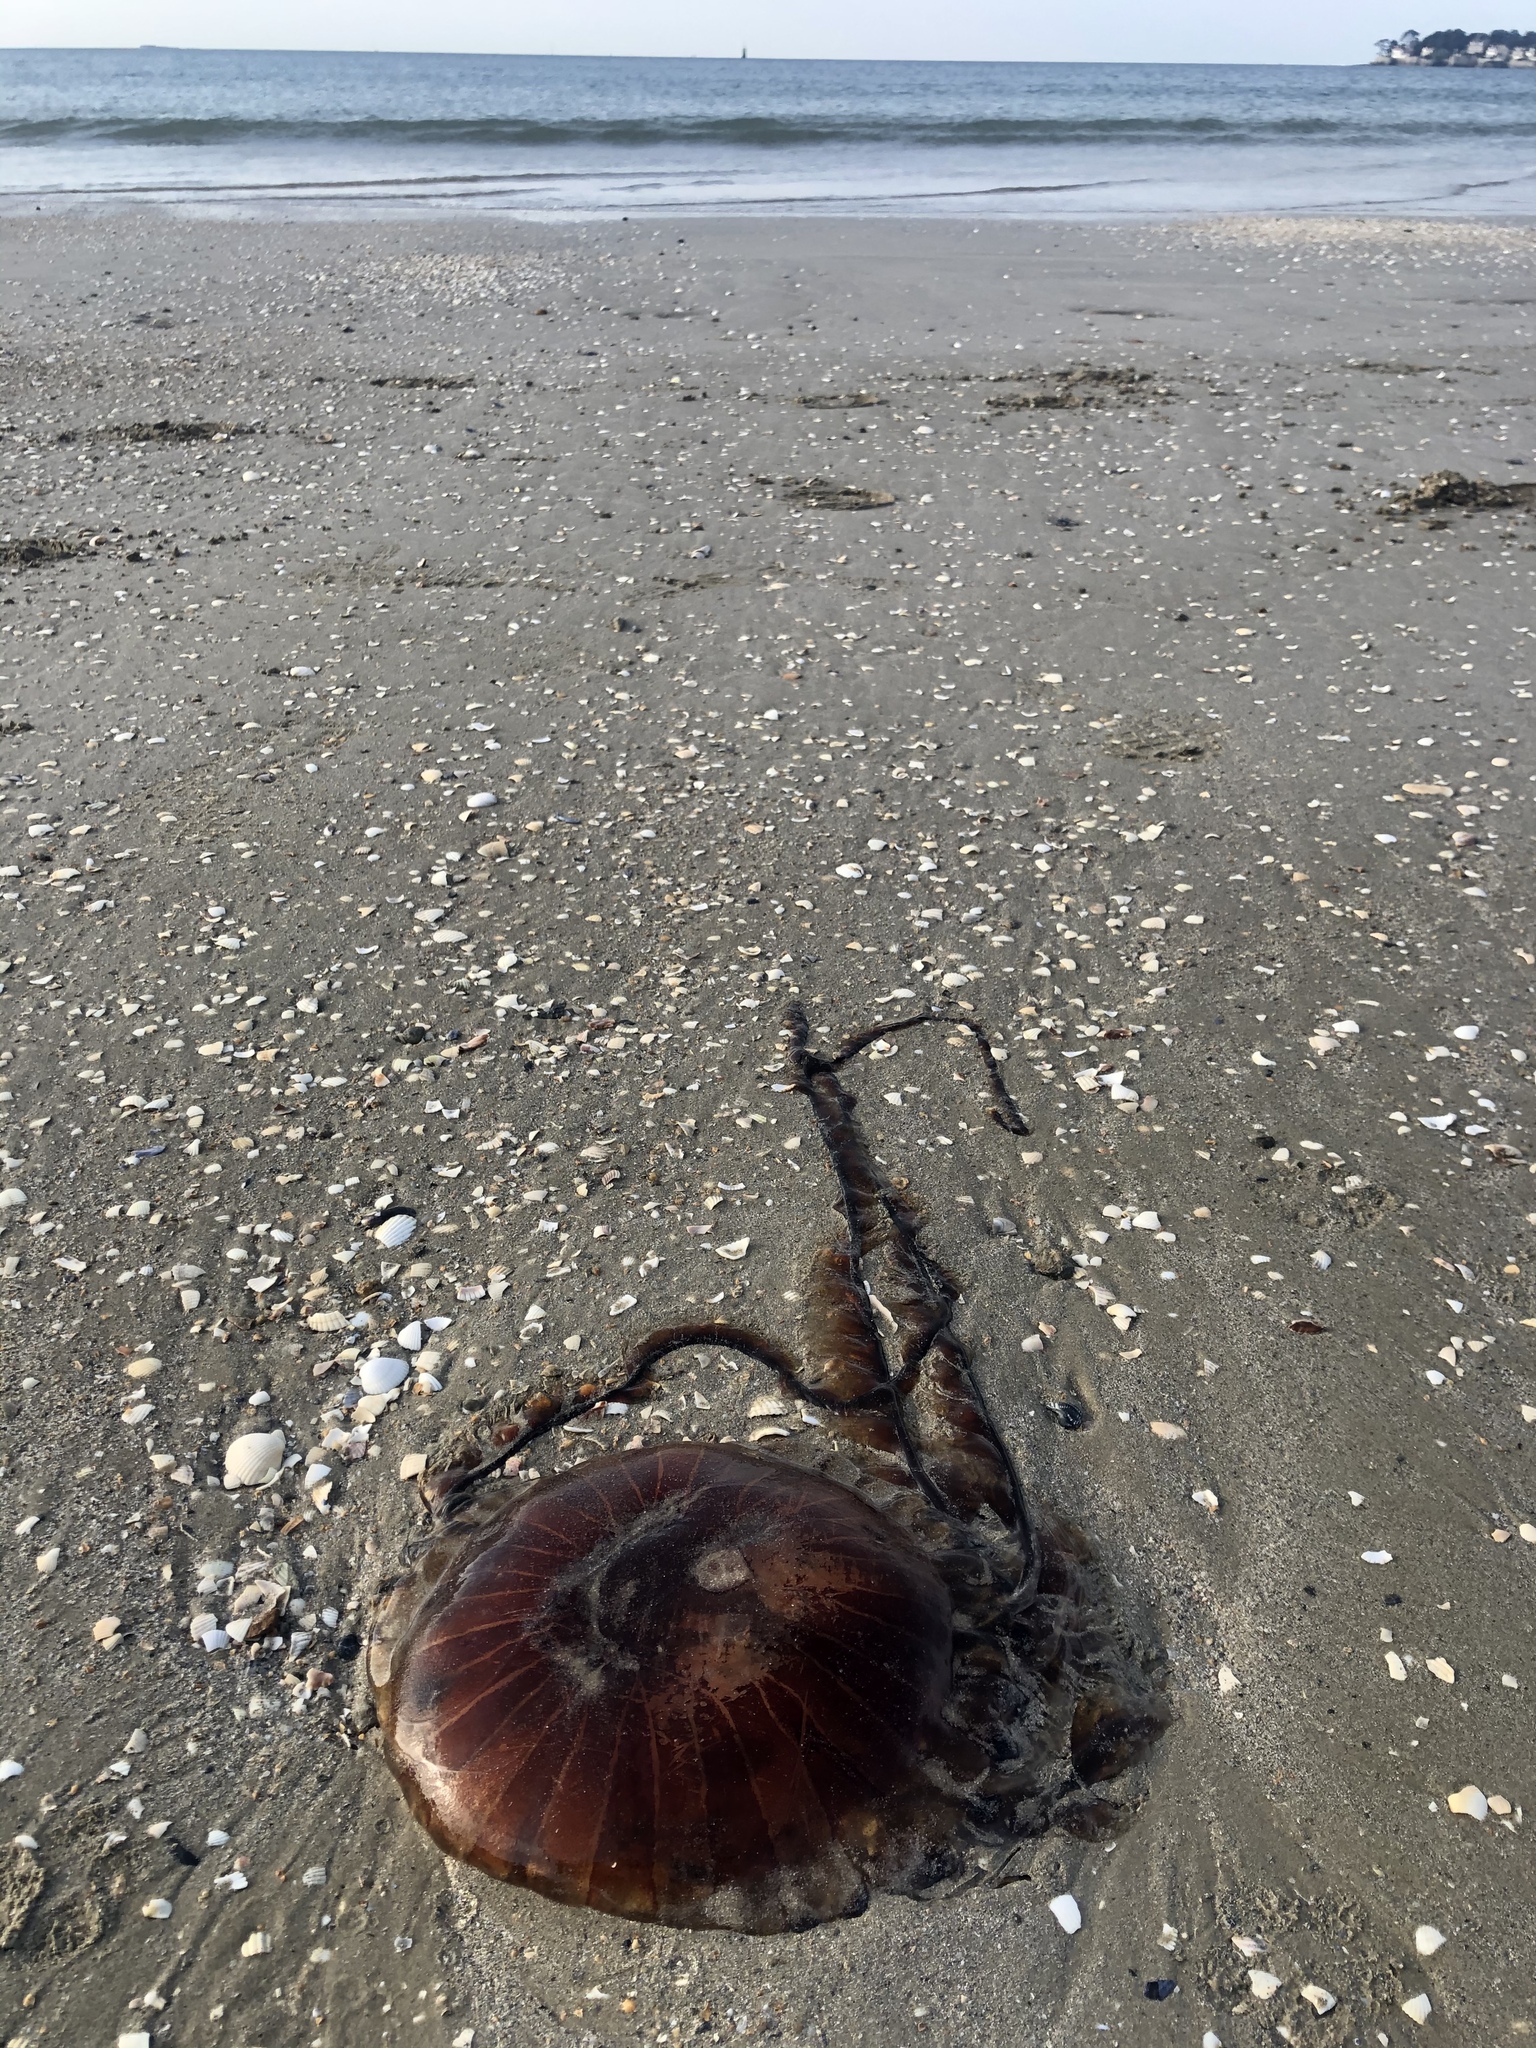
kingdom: Animalia
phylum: Cnidaria
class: Scyphozoa
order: Semaeostomeae
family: Pelagiidae
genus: Chrysaora
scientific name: Chrysaora hysoscella
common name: Compass jellyfish
